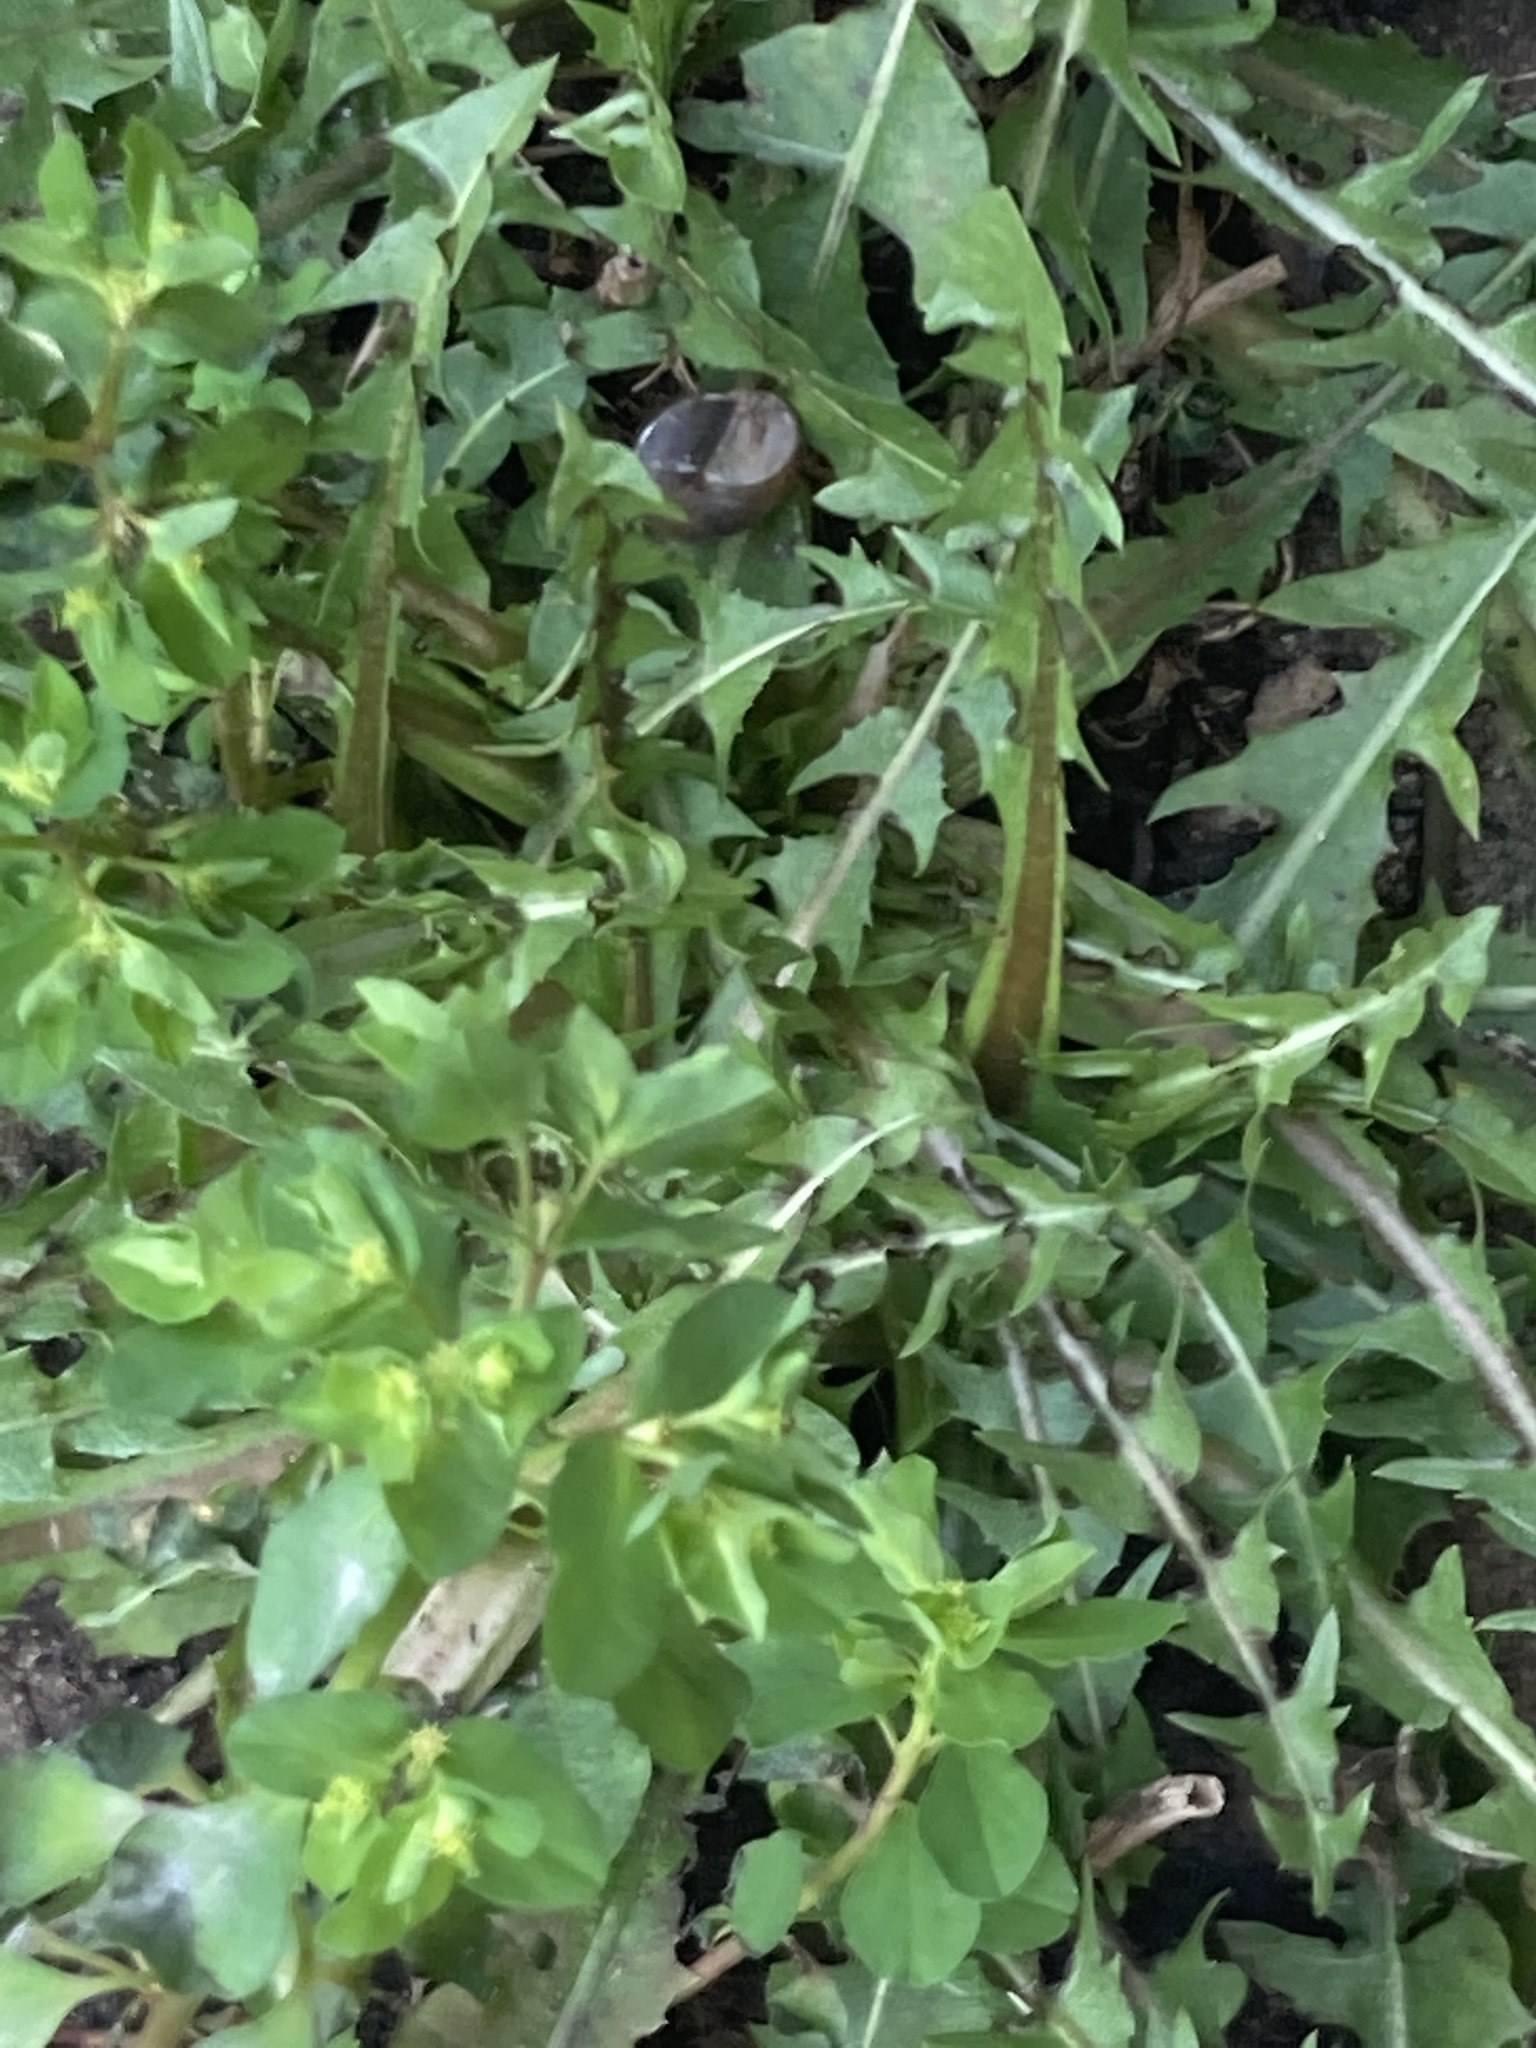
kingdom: Plantae
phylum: Tracheophyta
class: Magnoliopsida
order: Malpighiales
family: Euphorbiaceae
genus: Euphorbia
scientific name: Euphorbia peplus
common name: Petty spurge
